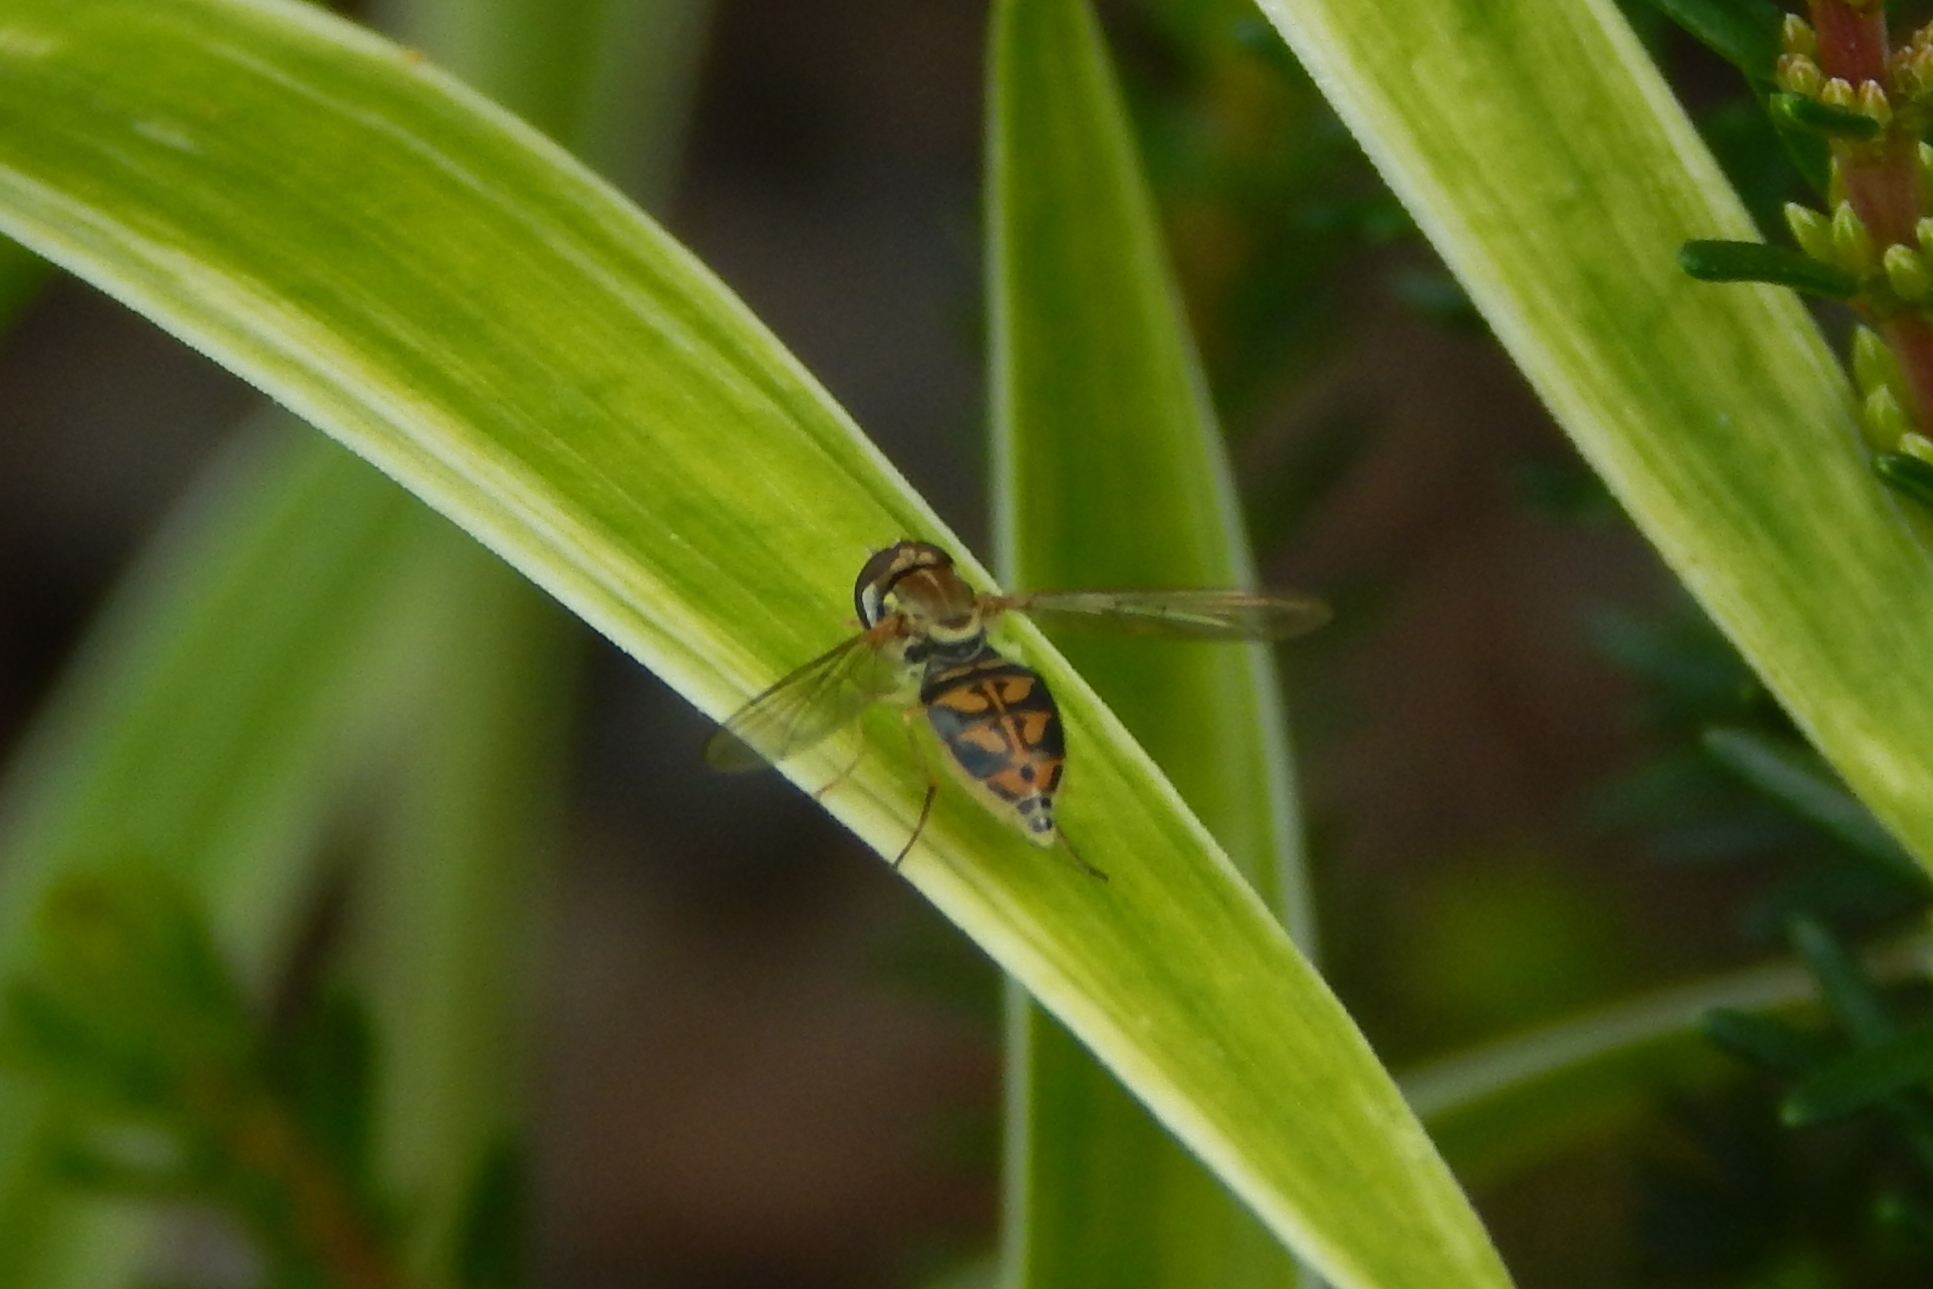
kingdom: Animalia
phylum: Arthropoda
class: Insecta
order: Diptera
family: Syrphidae
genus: Toxomerus
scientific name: Toxomerus marginatus
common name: Syrphid fly
